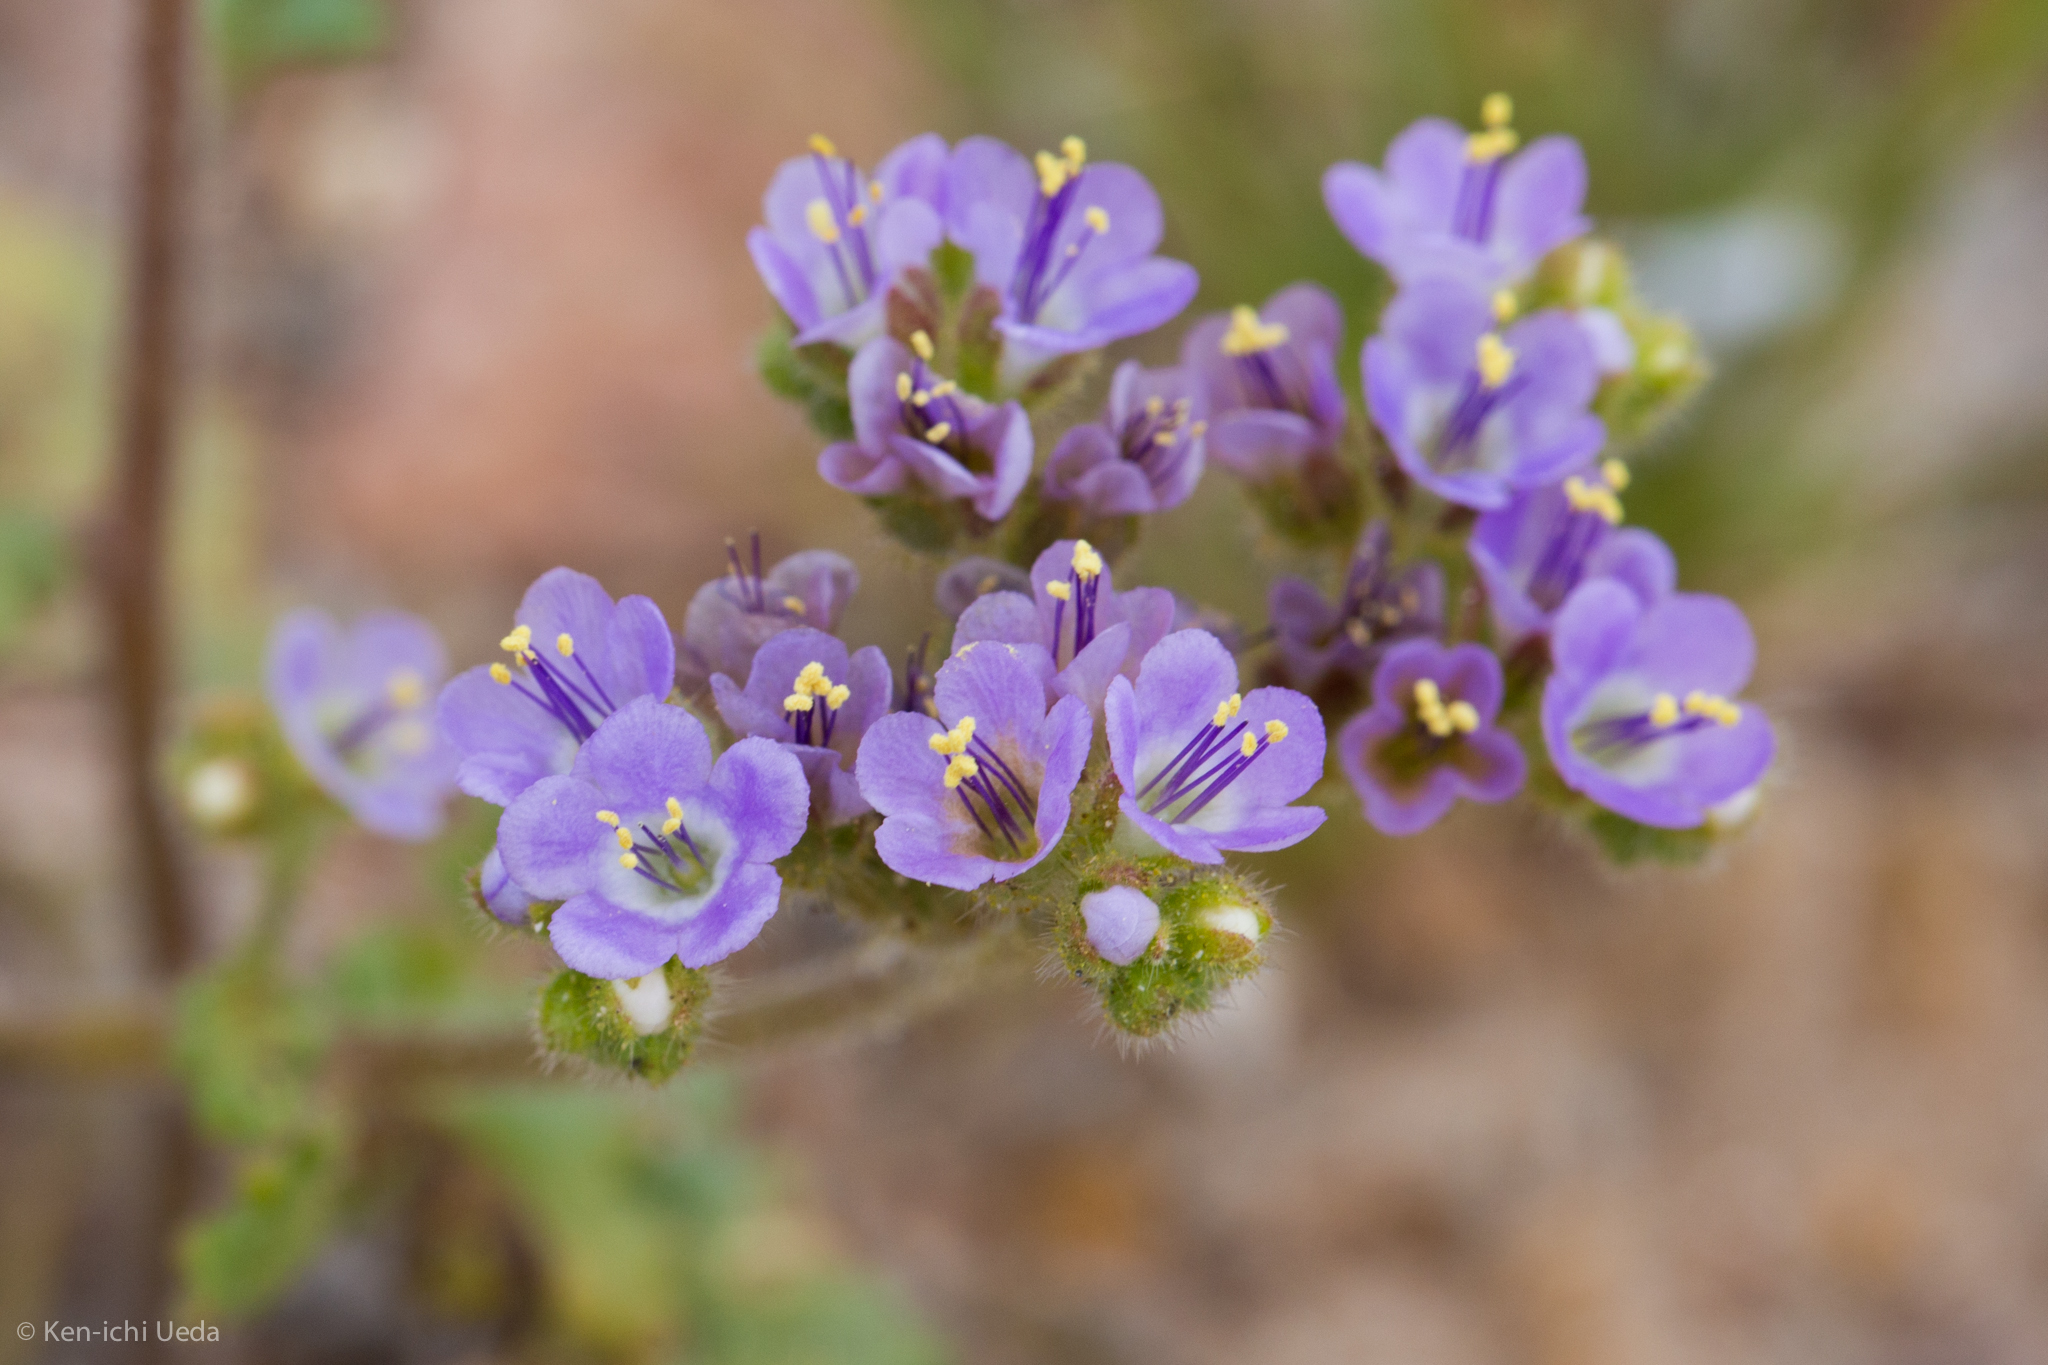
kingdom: Plantae
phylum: Tracheophyta
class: Magnoliopsida
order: Boraginales
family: Hydrophyllaceae
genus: Phacelia
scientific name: Phacelia crenulata
